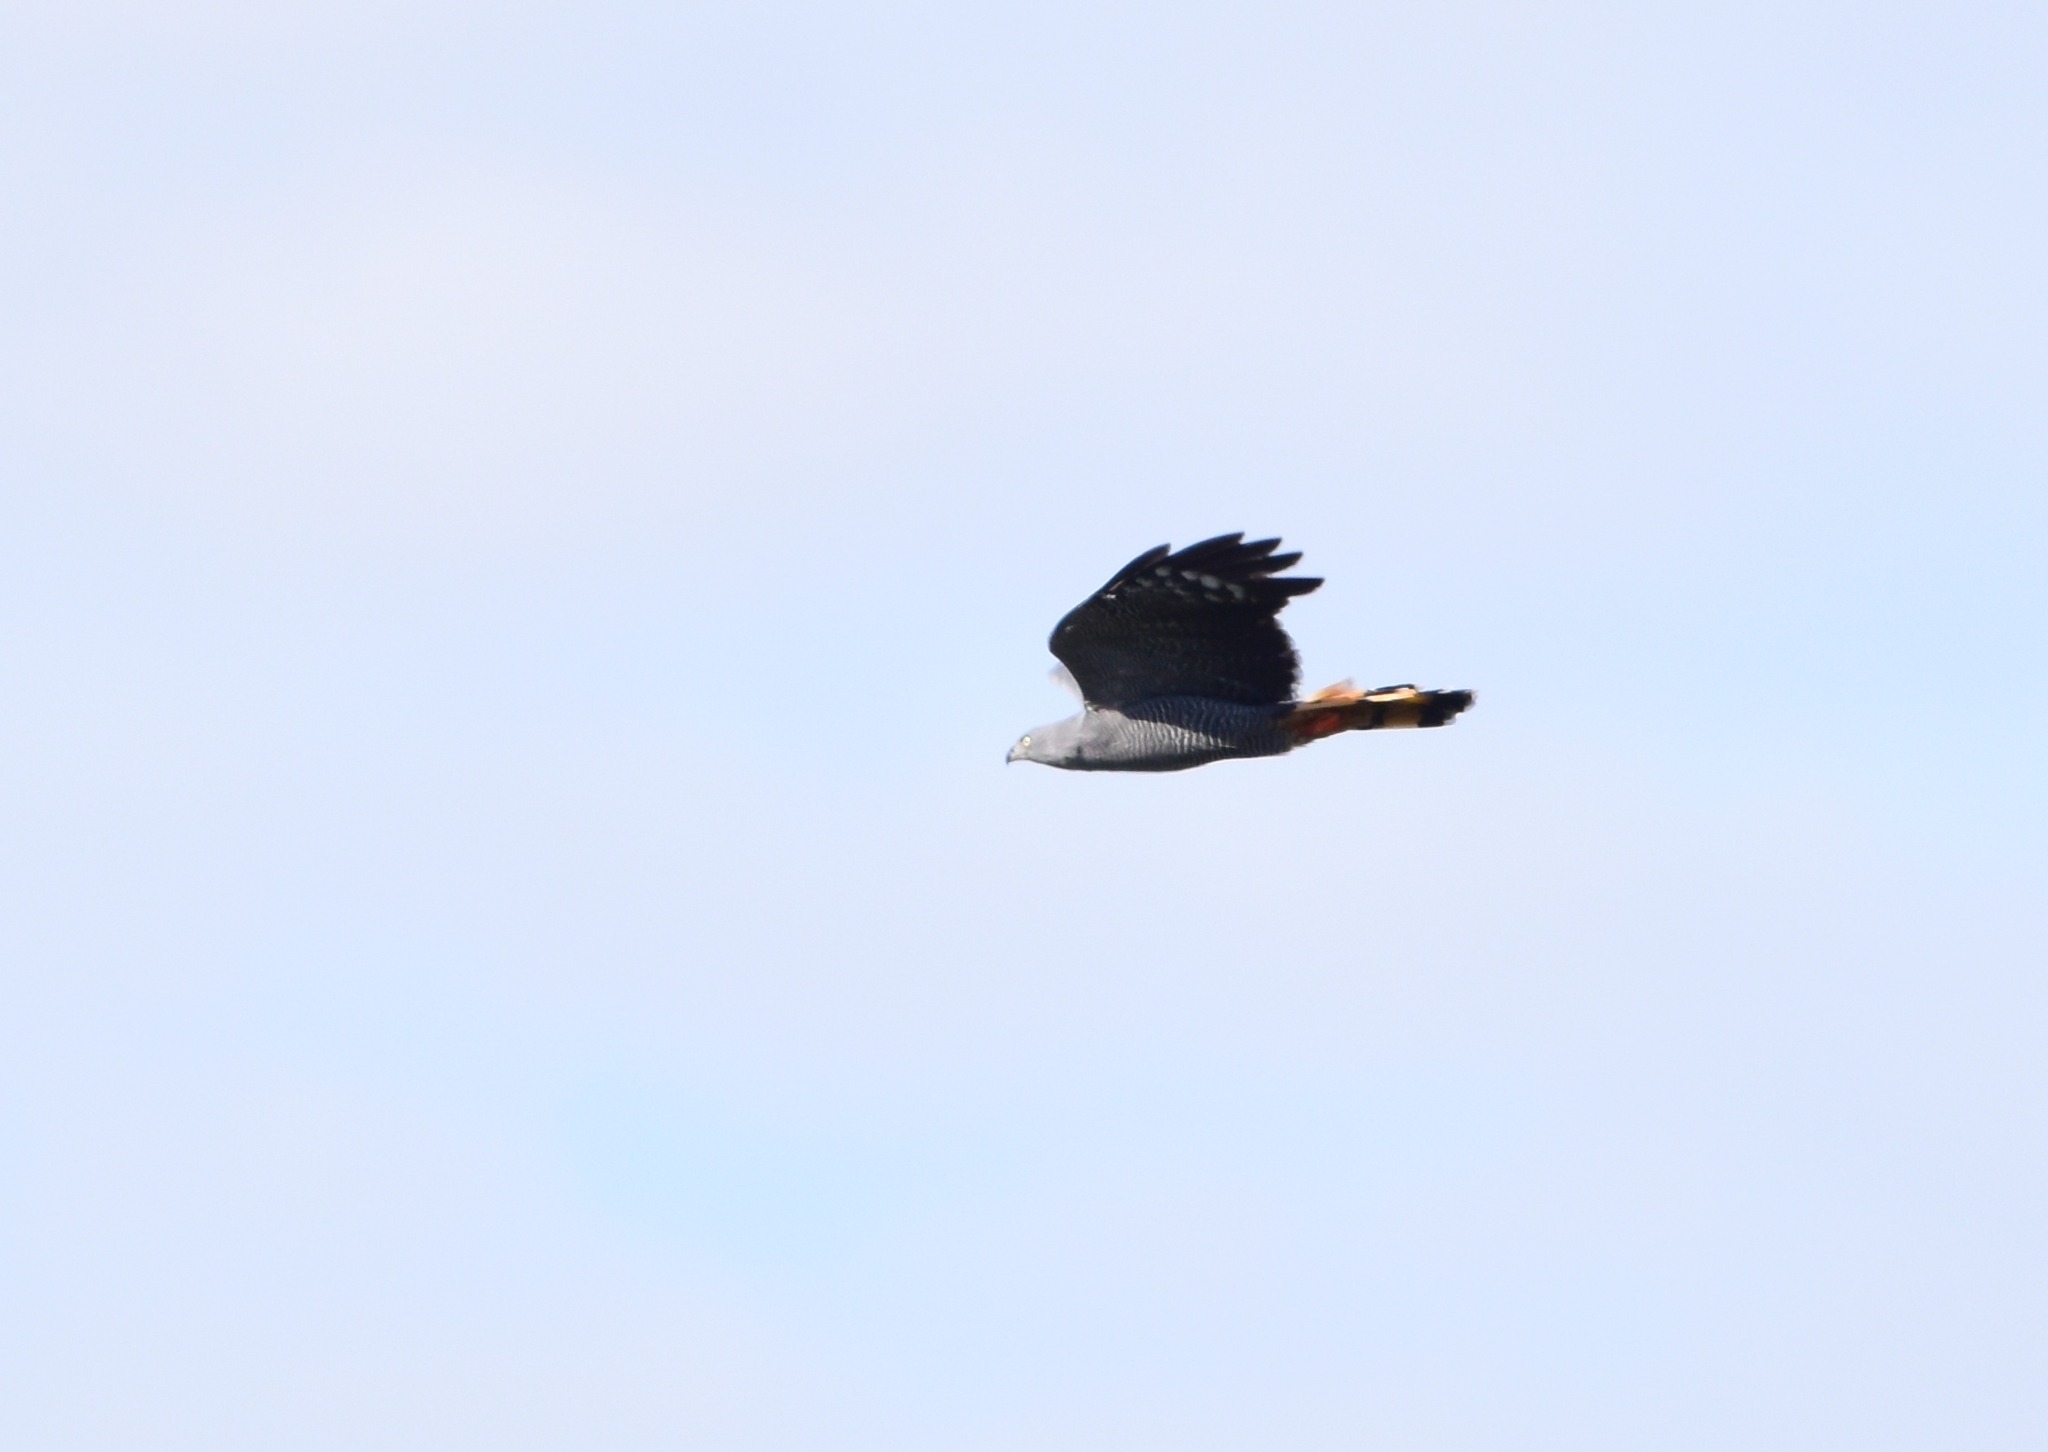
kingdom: Animalia
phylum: Chordata
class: Aves
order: Accipitriformes
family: Accipitridae
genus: Geranospiza
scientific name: Geranospiza caerulescens
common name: Crane hawk
